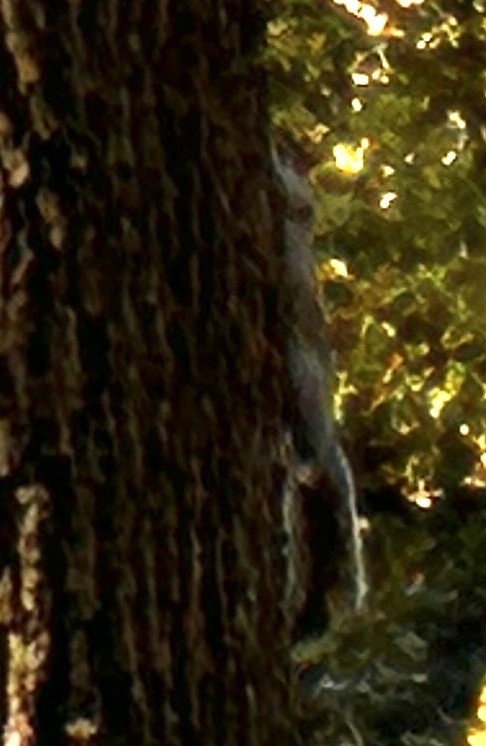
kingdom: Animalia
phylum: Chordata
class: Mammalia
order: Rodentia
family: Sciuridae
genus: Sciurus
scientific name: Sciurus carolinensis
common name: Eastern gray squirrel
